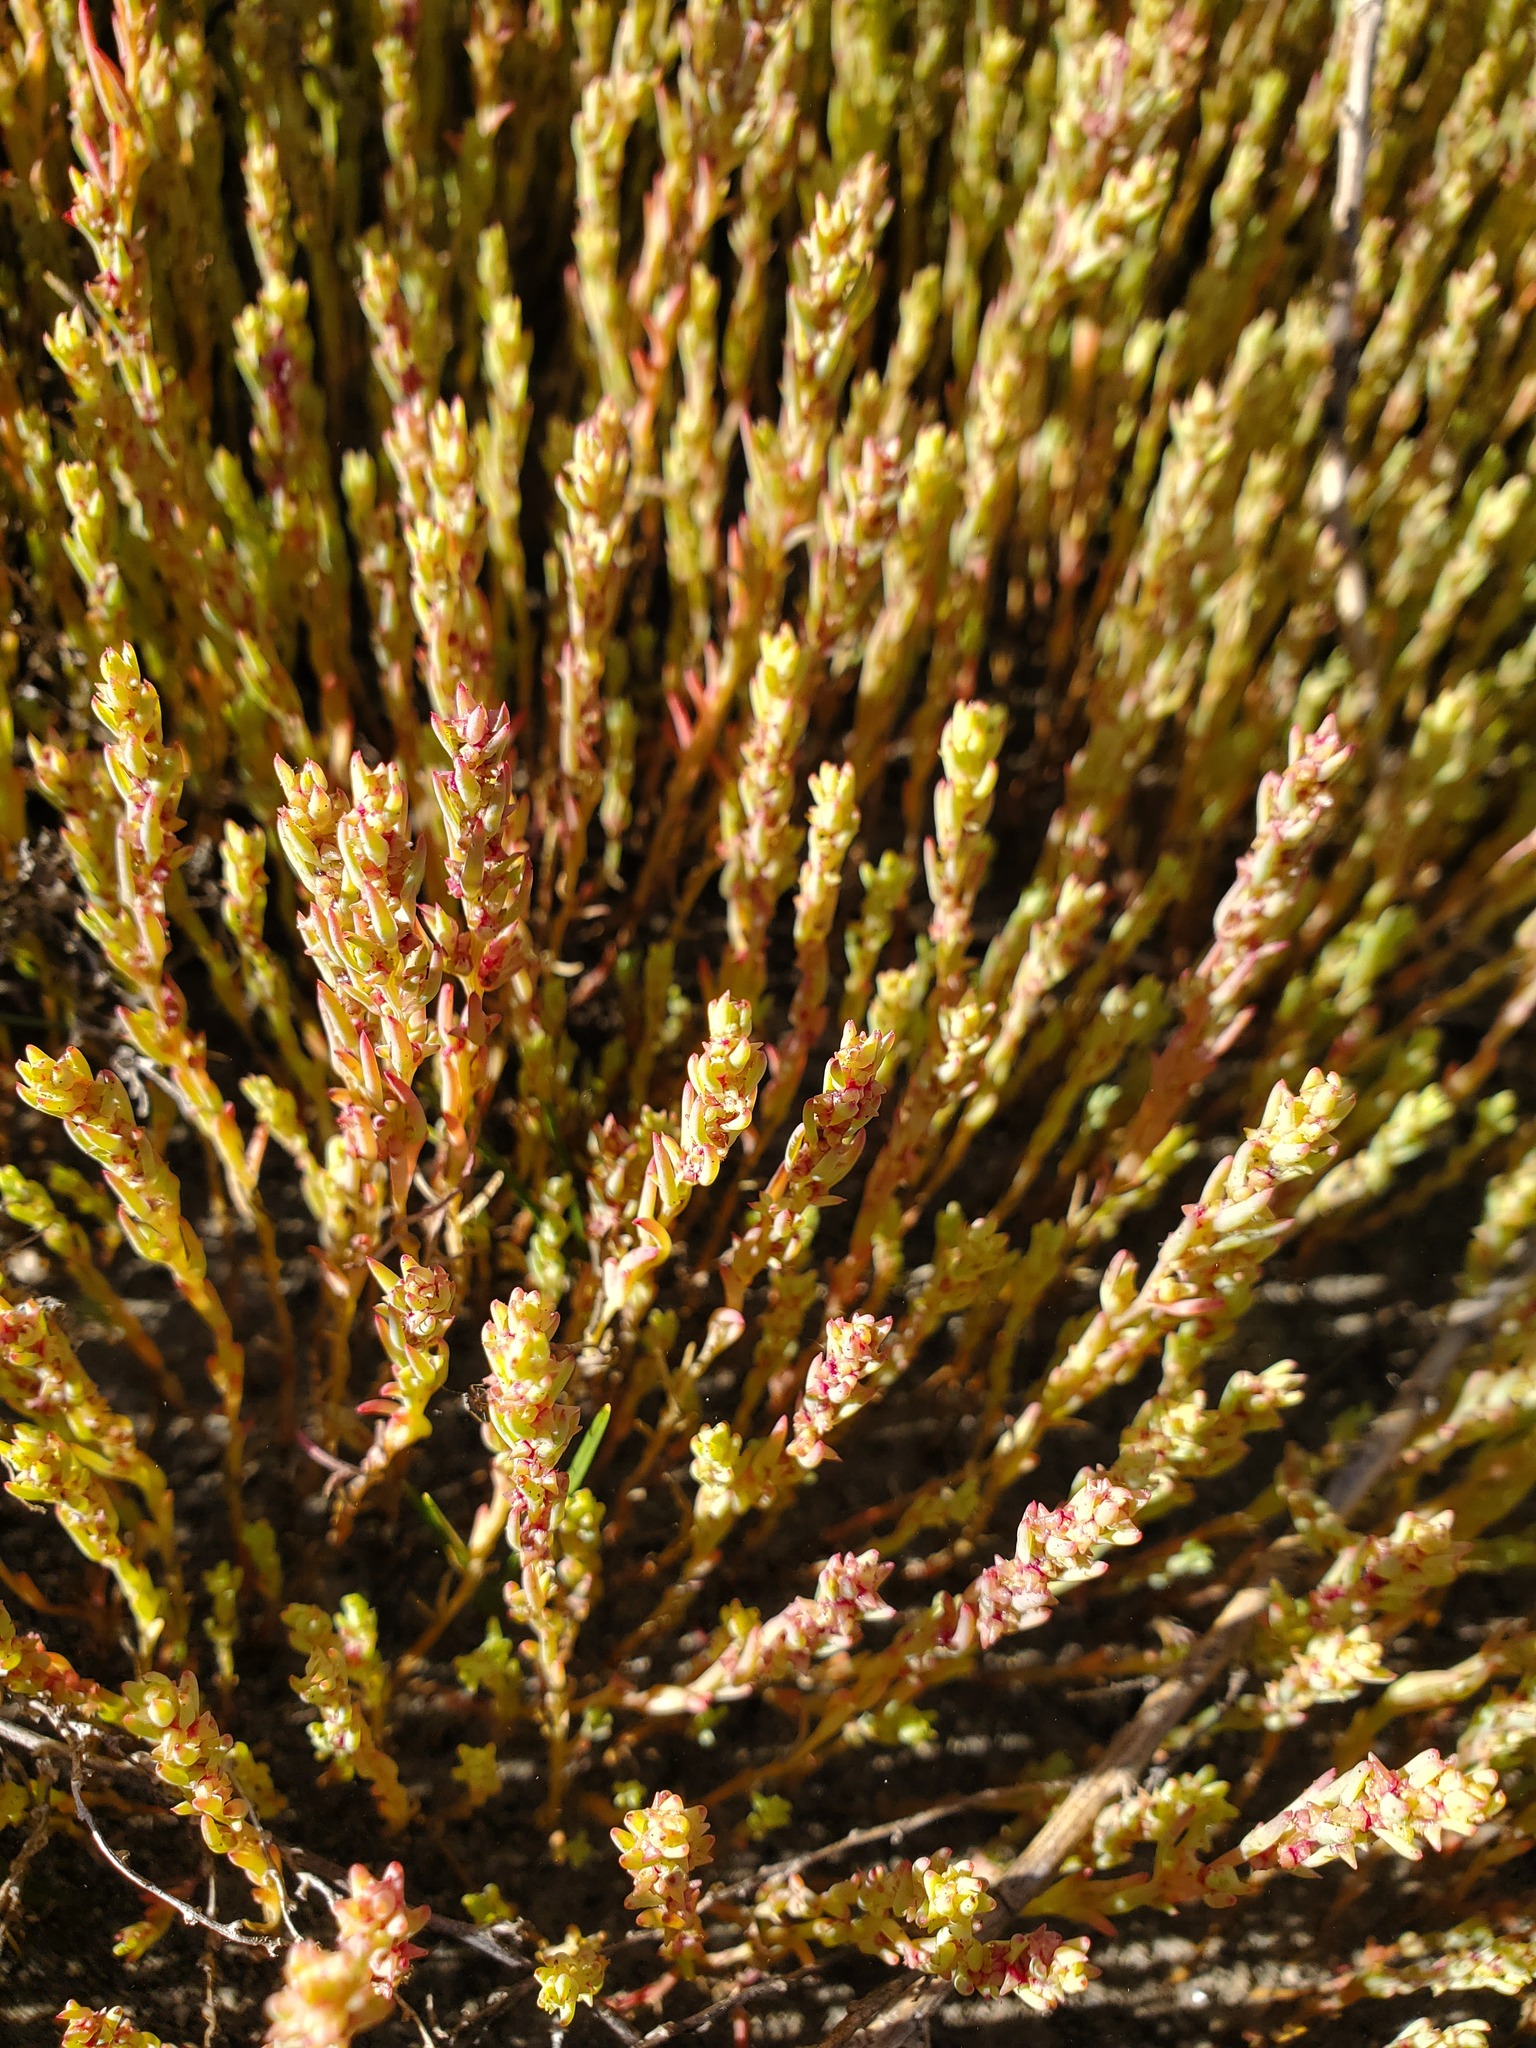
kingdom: Plantae
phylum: Tracheophyta
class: Magnoliopsida
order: Caryophyllales
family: Amaranthaceae
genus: Suaeda
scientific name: Suaeda calceoliformis
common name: Pursh's seepweed
